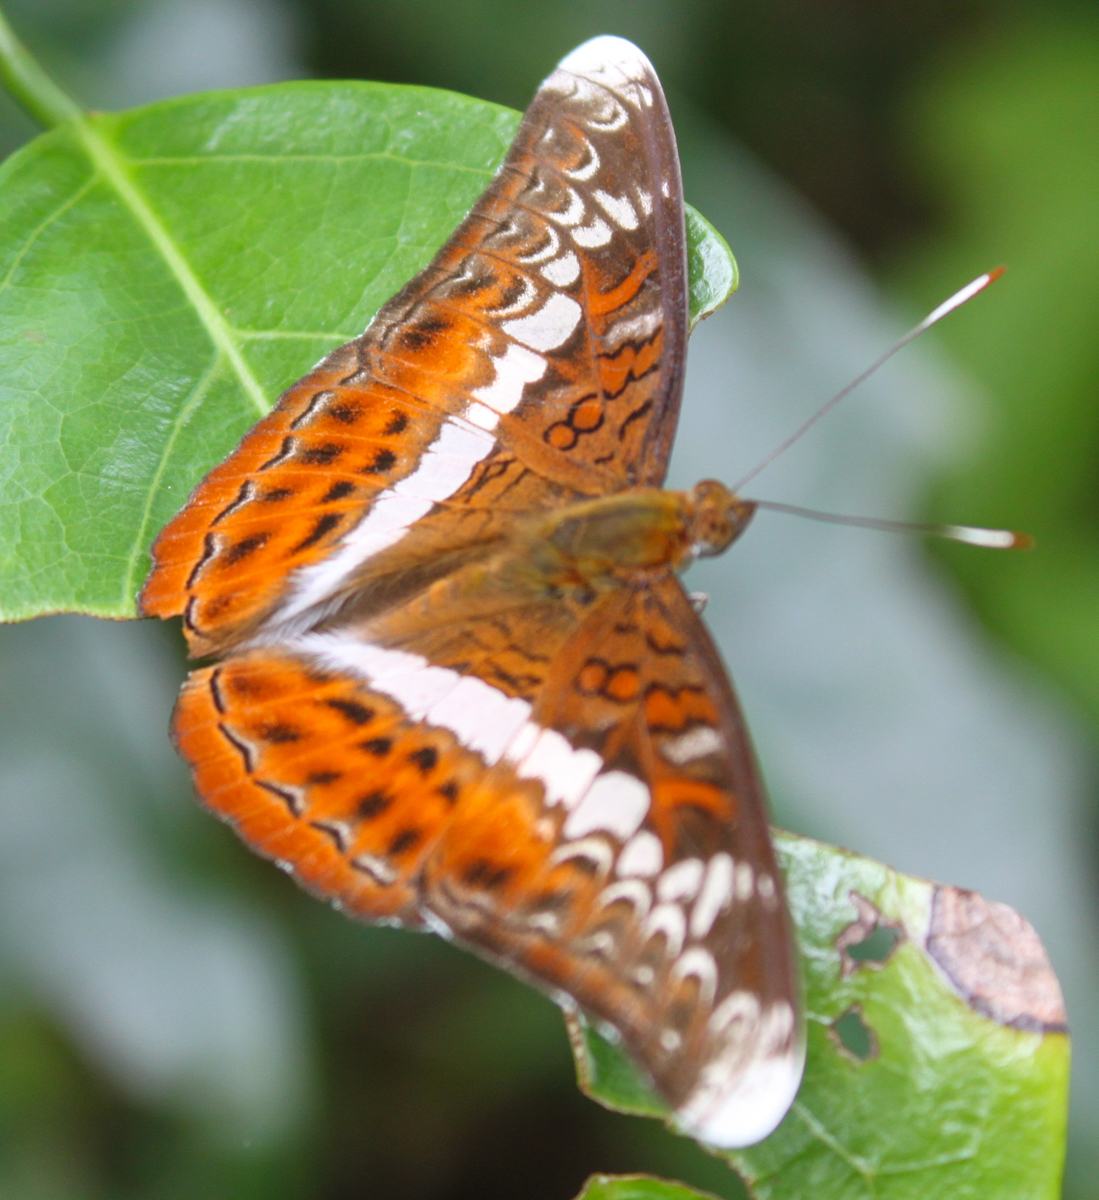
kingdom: Animalia
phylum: Arthropoda
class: Insecta
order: Lepidoptera
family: Nymphalidae
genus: Lebadea
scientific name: Lebadea martha
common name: Knight
